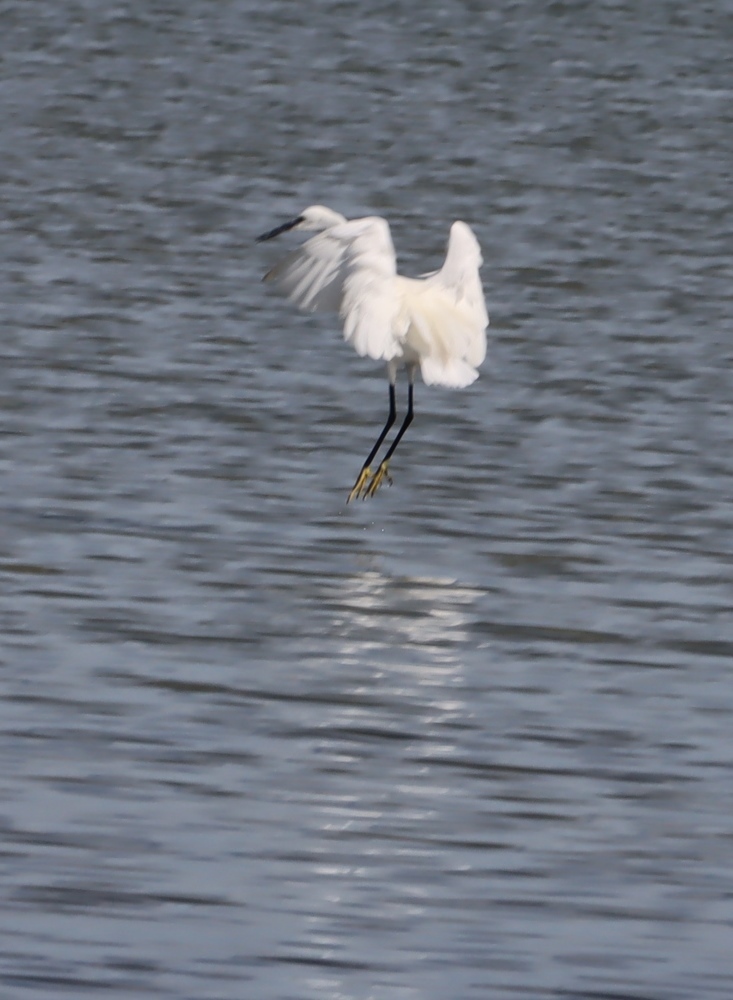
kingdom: Animalia
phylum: Chordata
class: Aves
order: Pelecaniformes
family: Ardeidae
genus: Egretta
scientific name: Egretta garzetta
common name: Little egret
